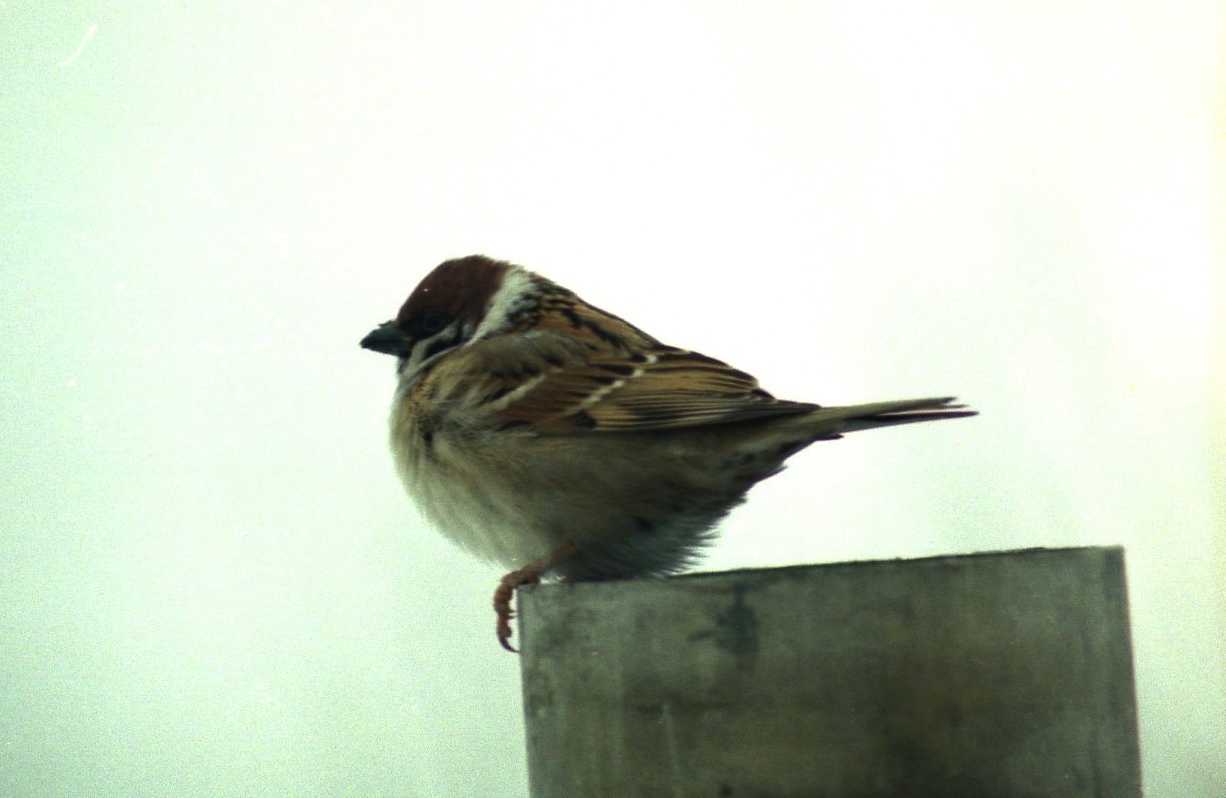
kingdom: Animalia
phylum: Chordata
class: Aves
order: Passeriformes
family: Passeridae
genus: Passer
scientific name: Passer montanus
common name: Eurasian tree sparrow
